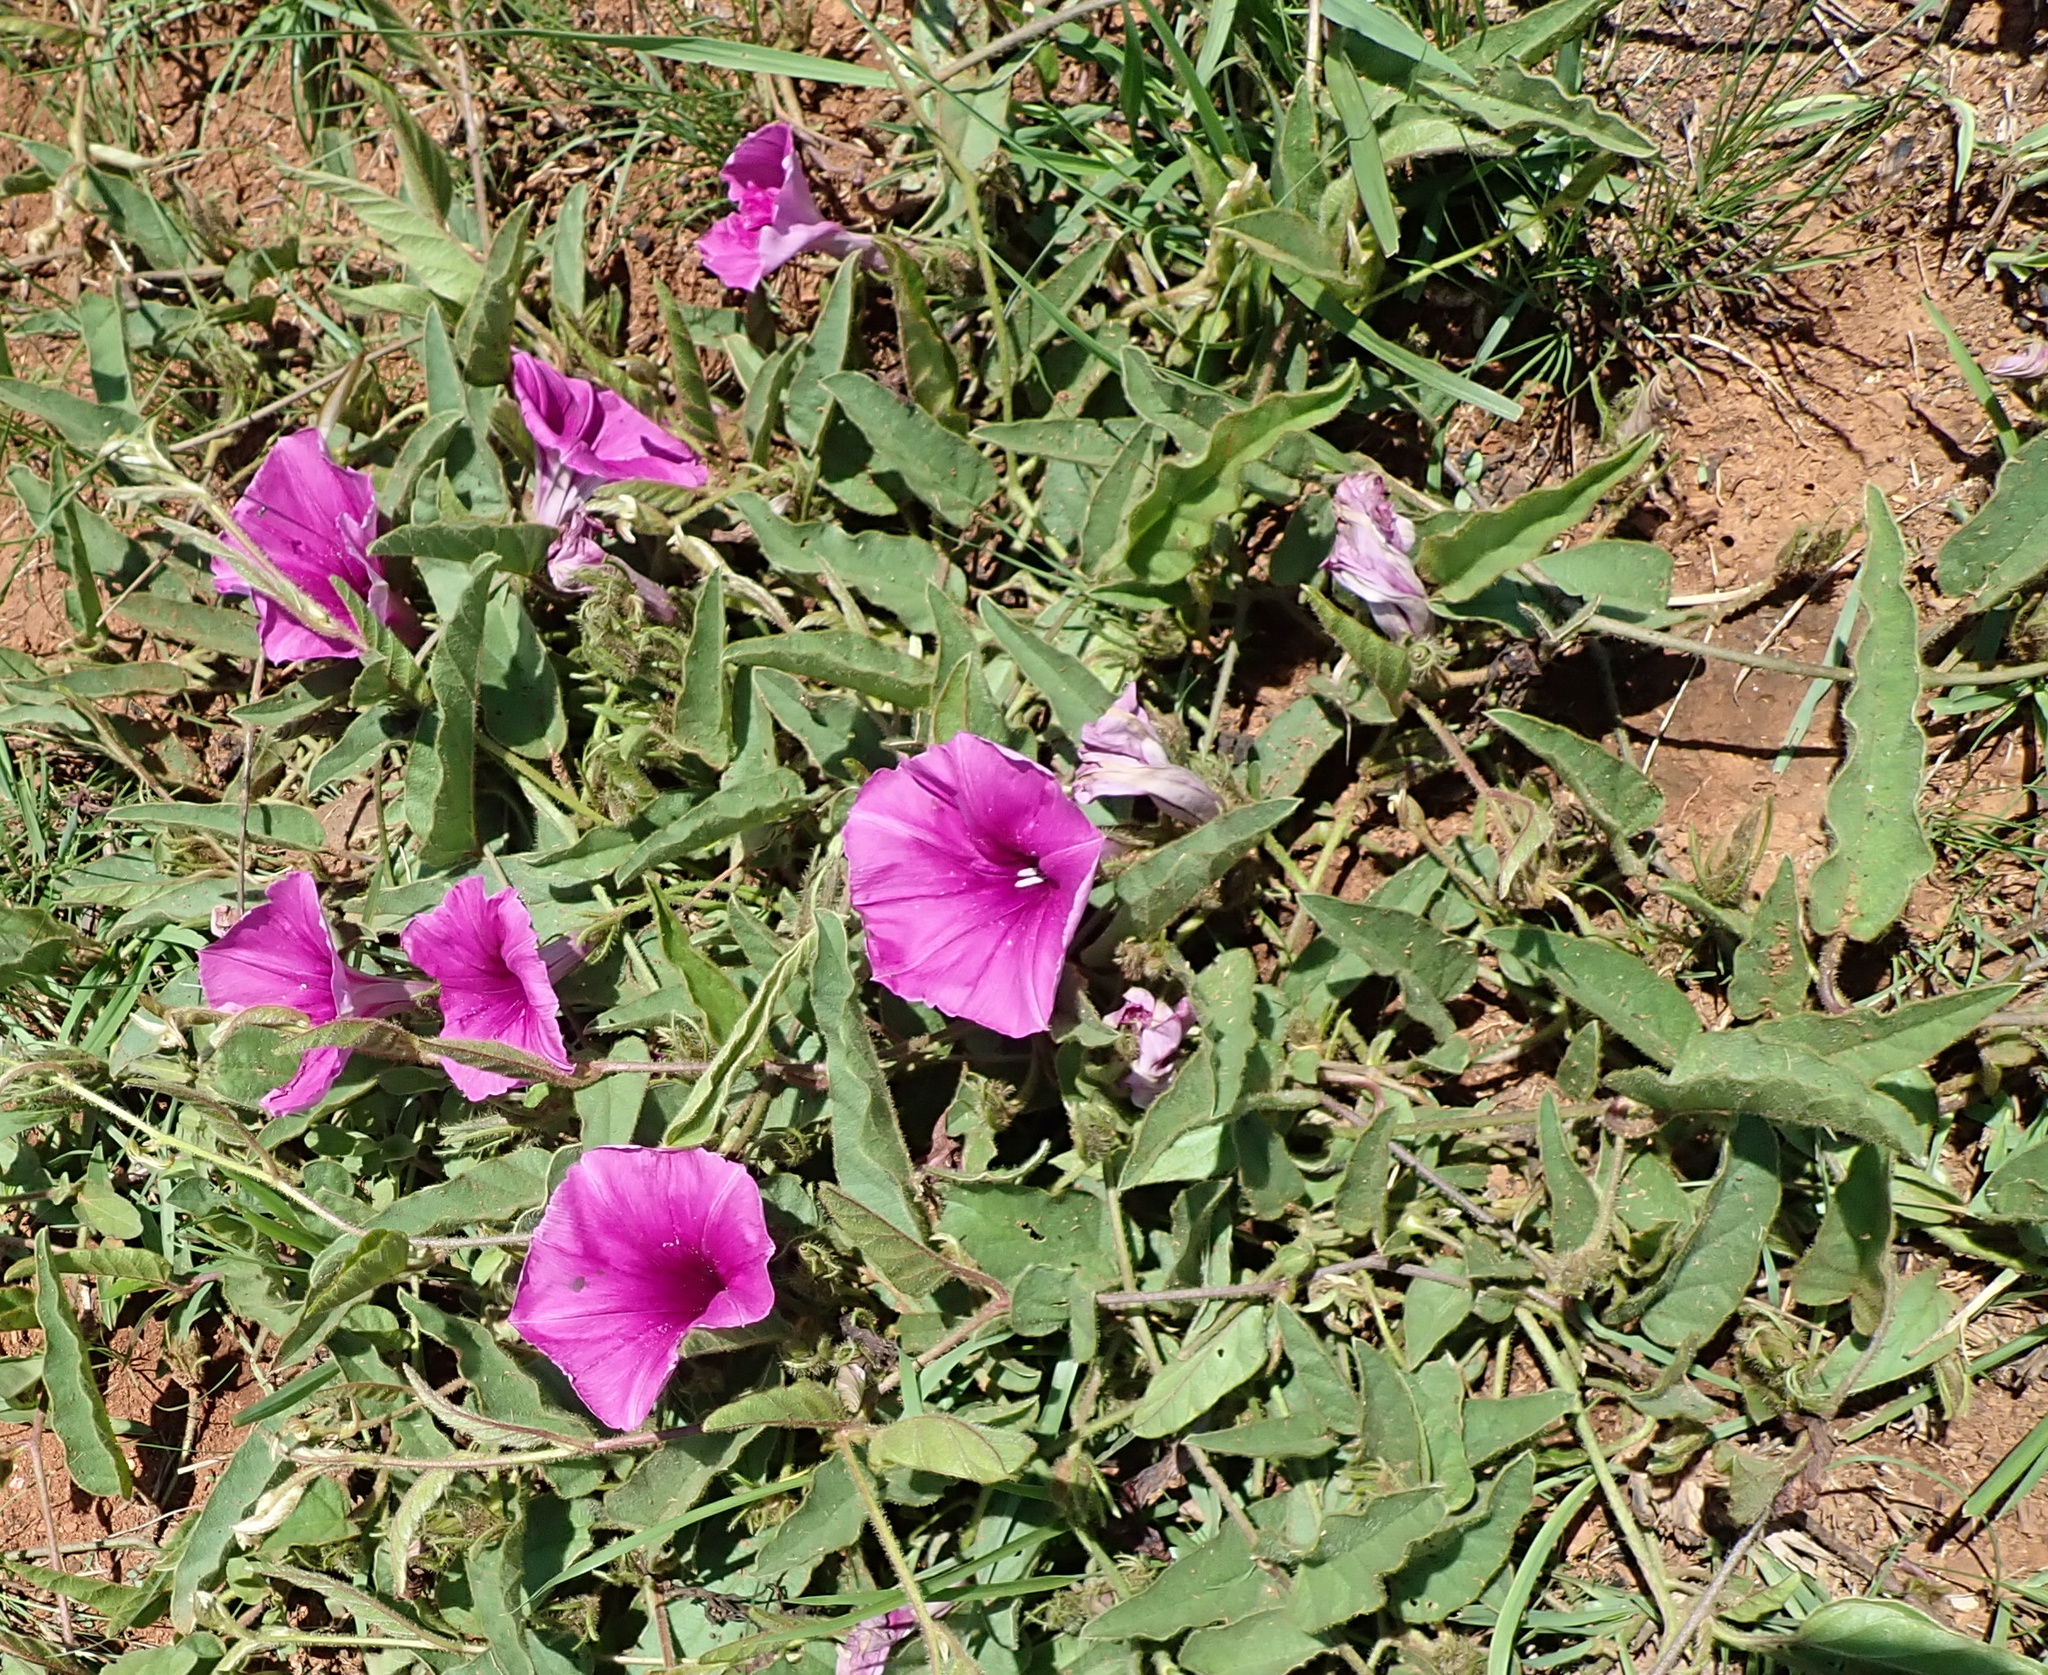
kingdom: Plantae
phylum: Tracheophyta
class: Magnoliopsida
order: Solanales
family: Convolvulaceae
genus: Ipomoea
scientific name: Ipomoea pellita
